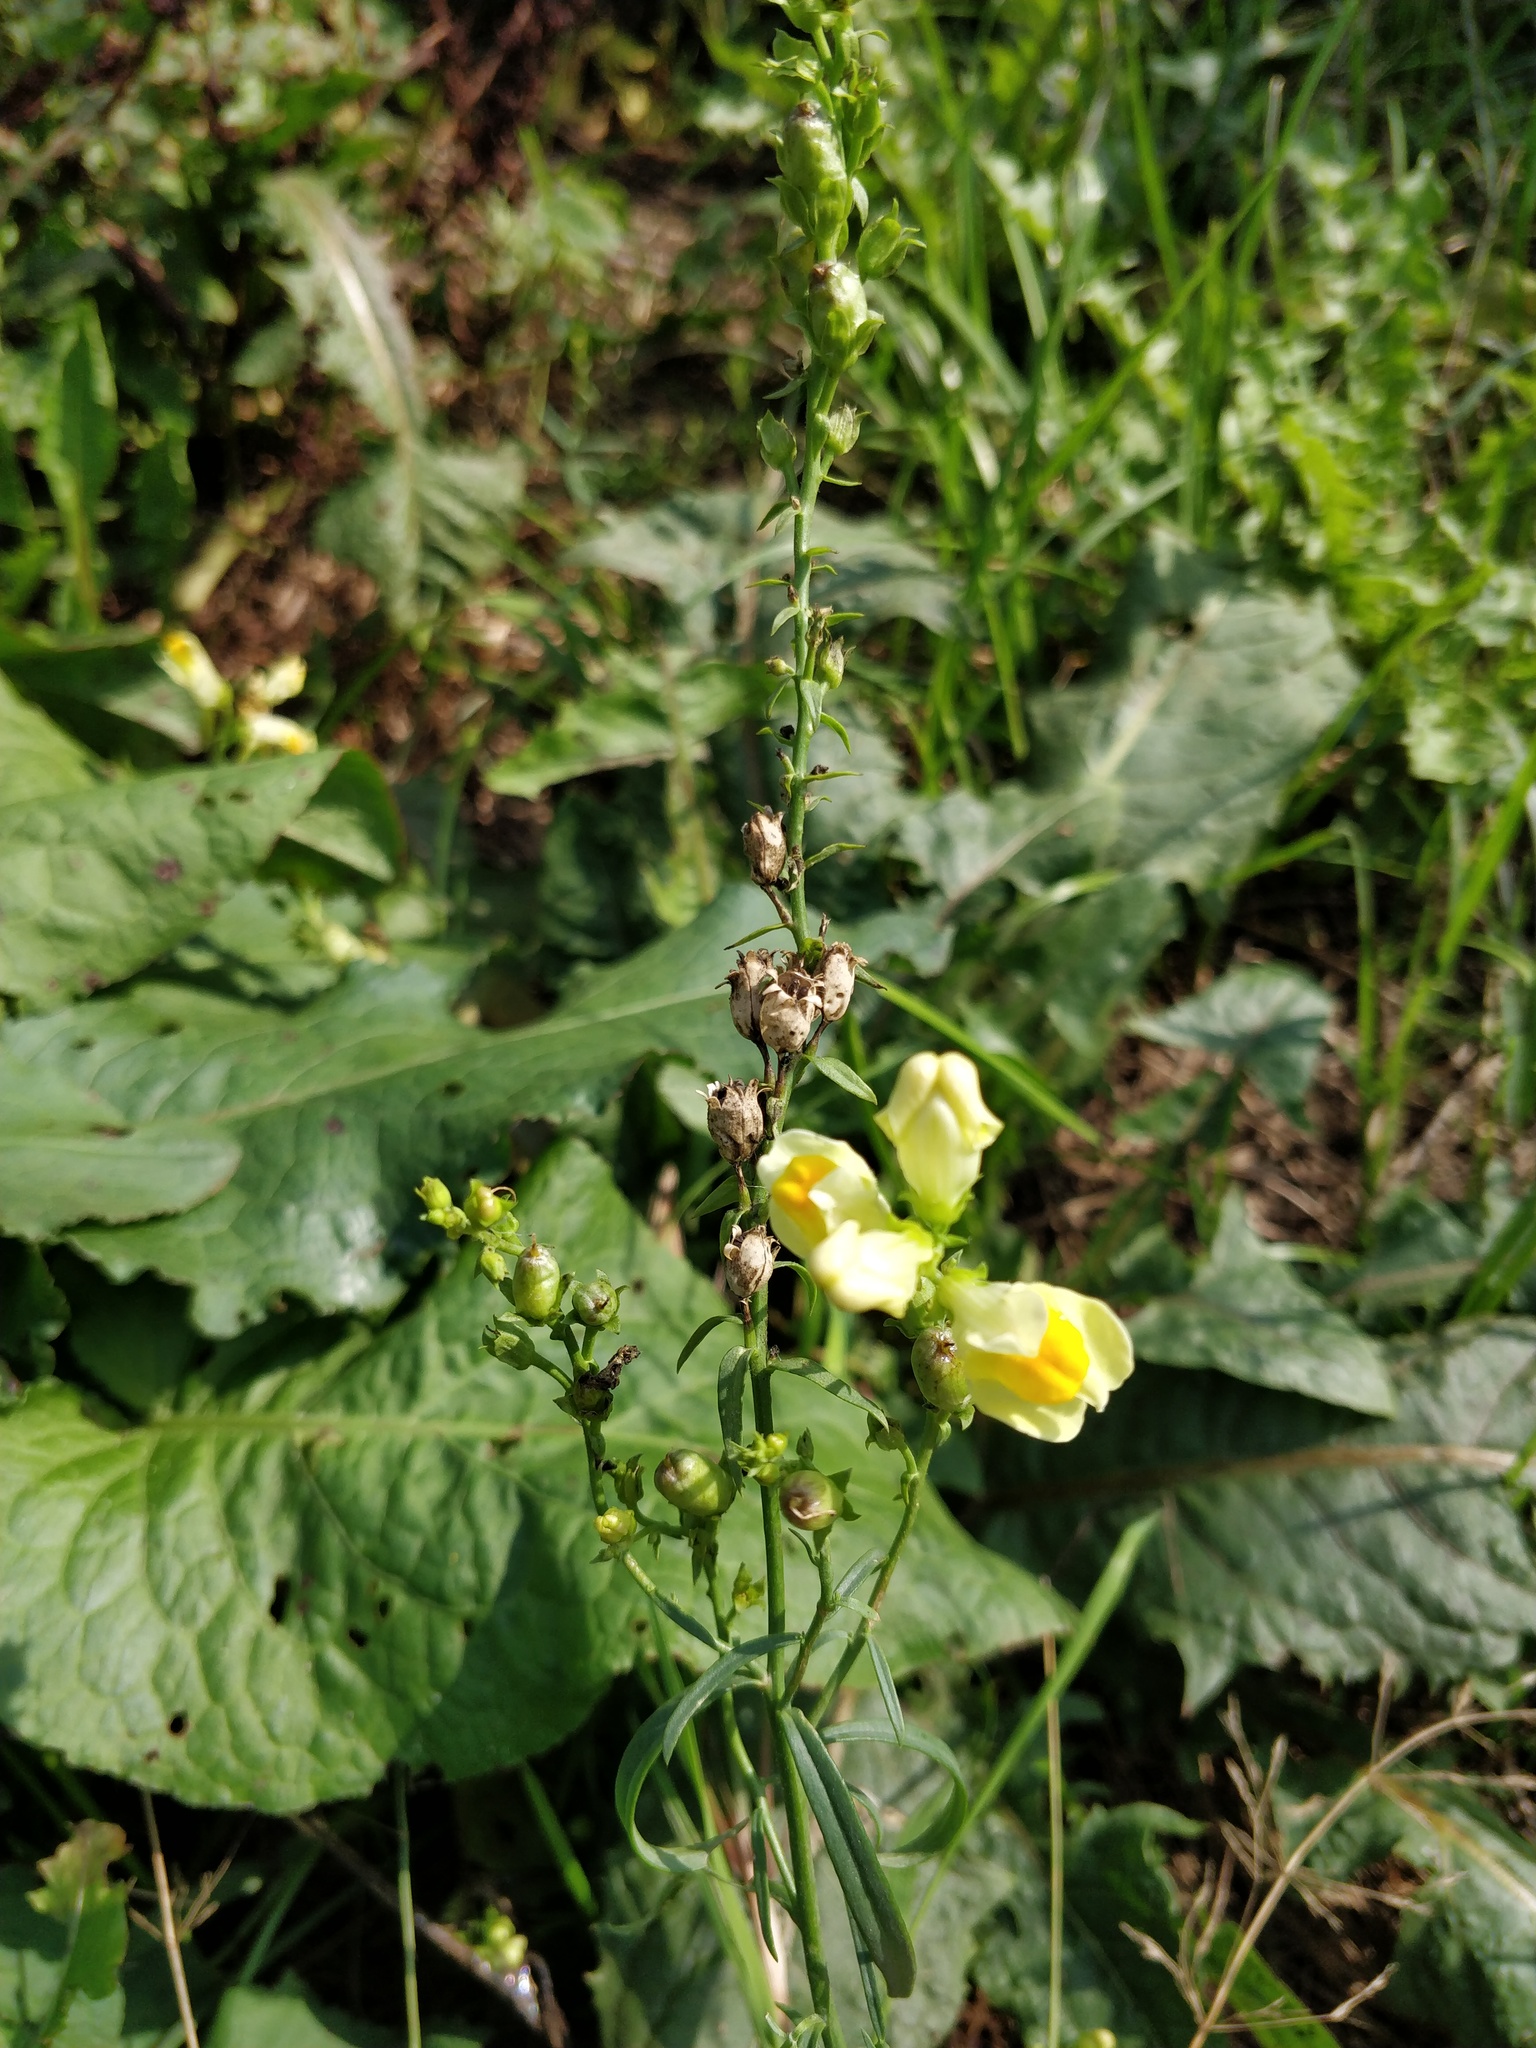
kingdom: Plantae
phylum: Tracheophyta
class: Magnoliopsida
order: Lamiales
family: Plantaginaceae
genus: Linaria
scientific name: Linaria vulgaris
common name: Butter and eggs
